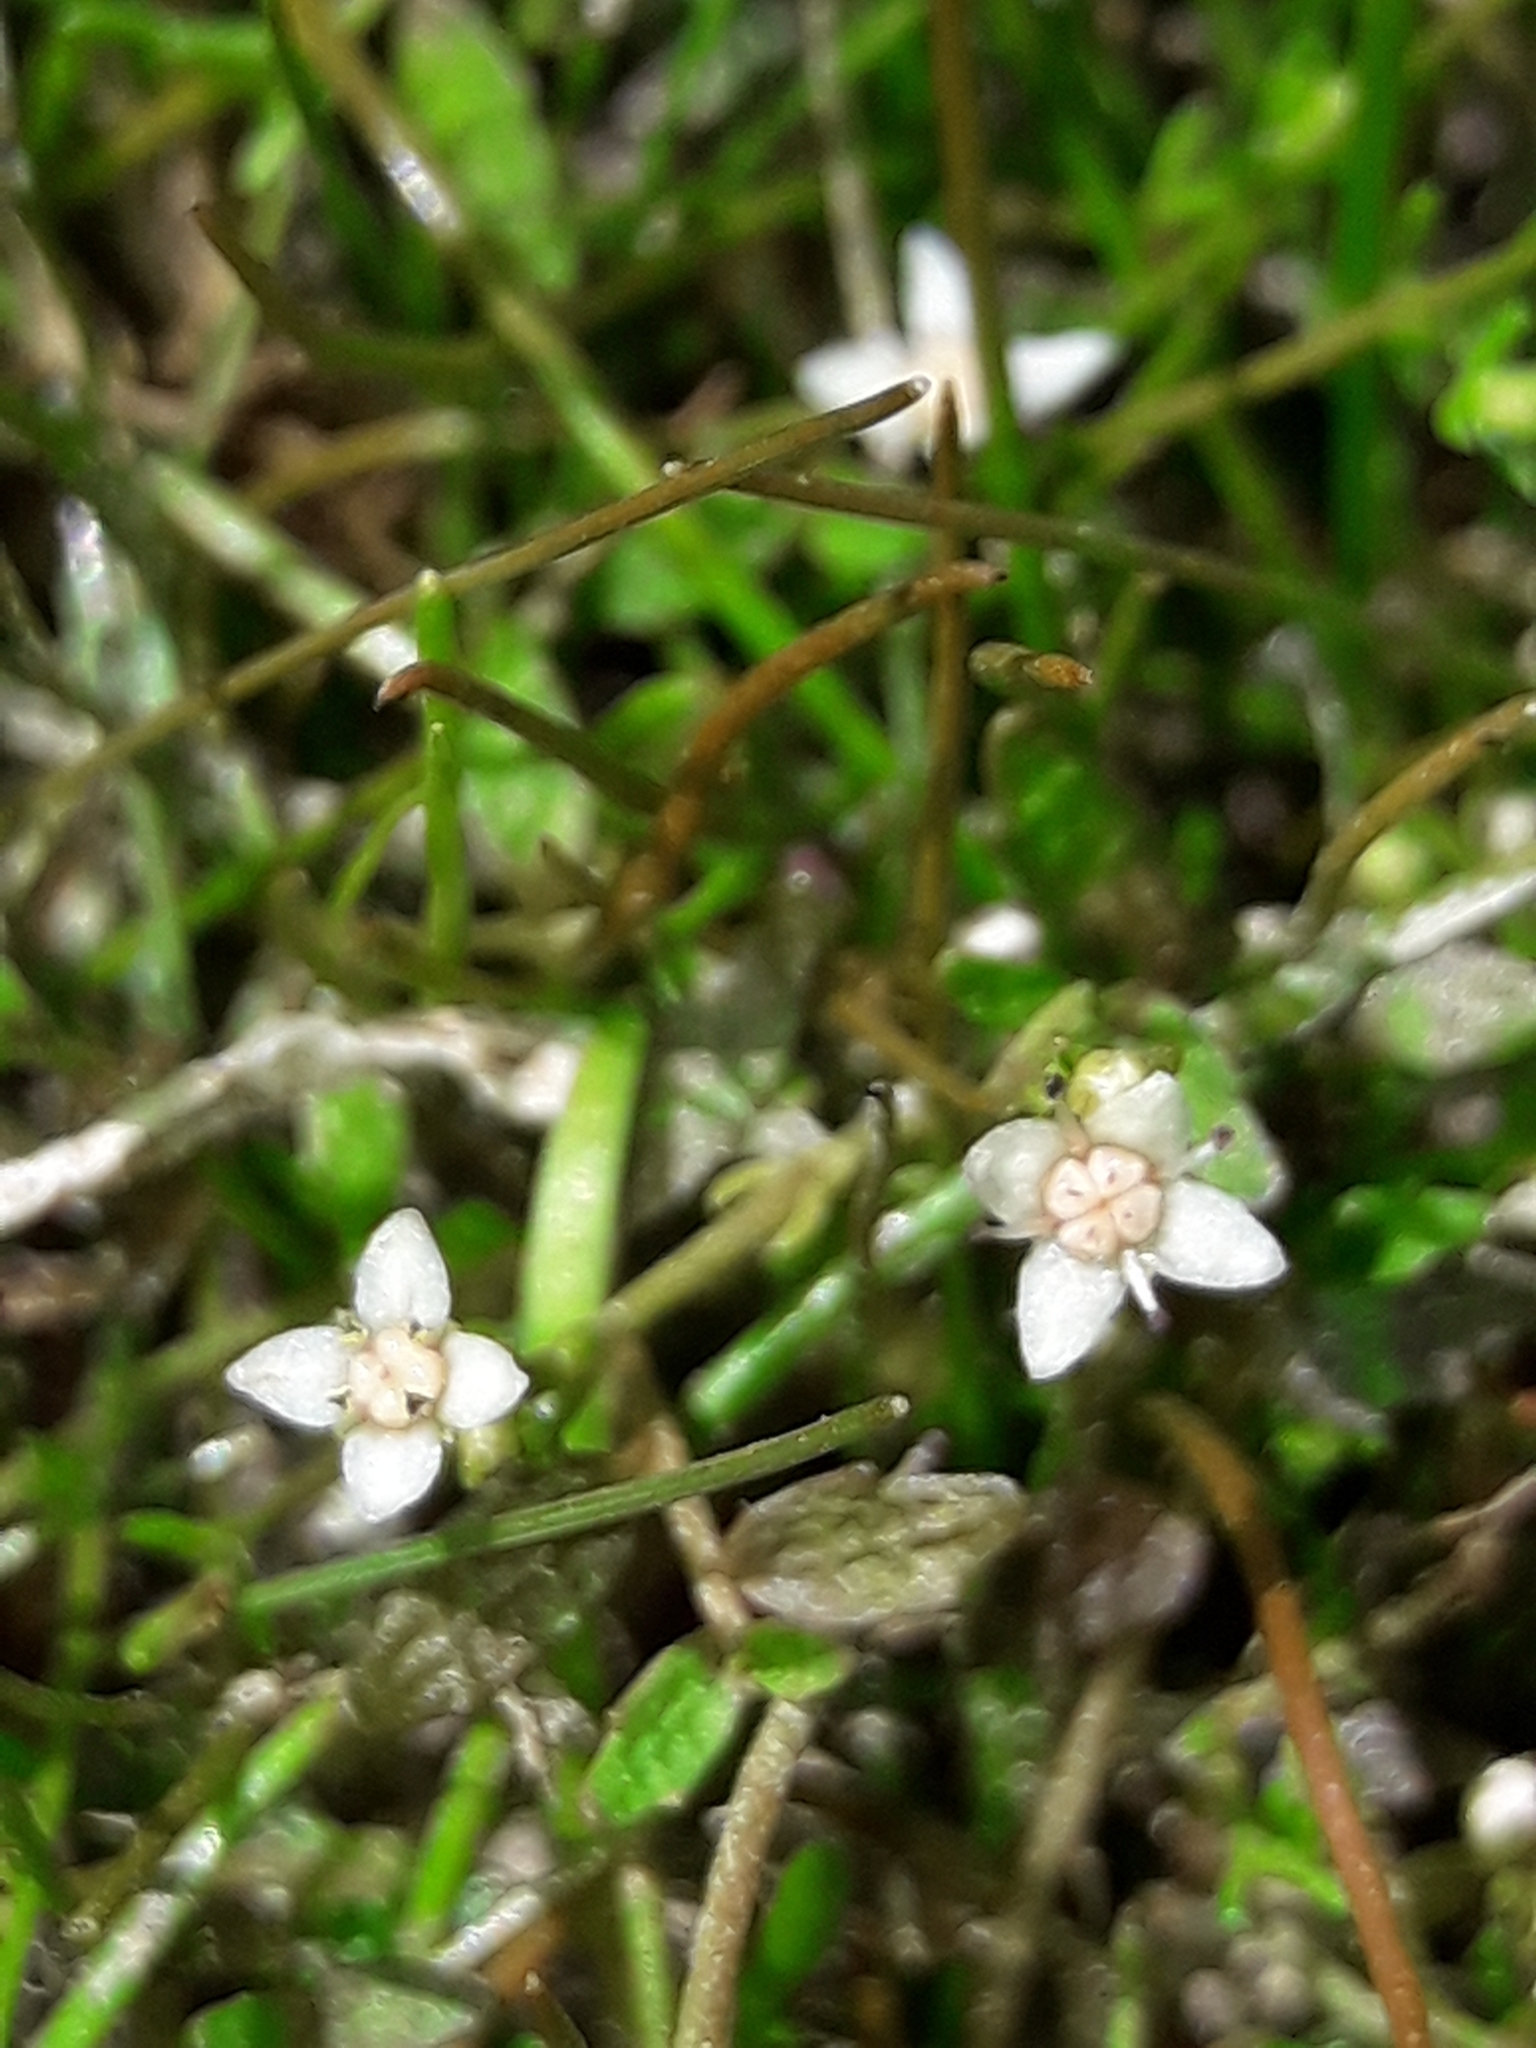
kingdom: Plantae
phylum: Tracheophyta
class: Magnoliopsida
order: Saxifragales
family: Crassulaceae
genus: Crassula
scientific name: Crassula sinclairii
